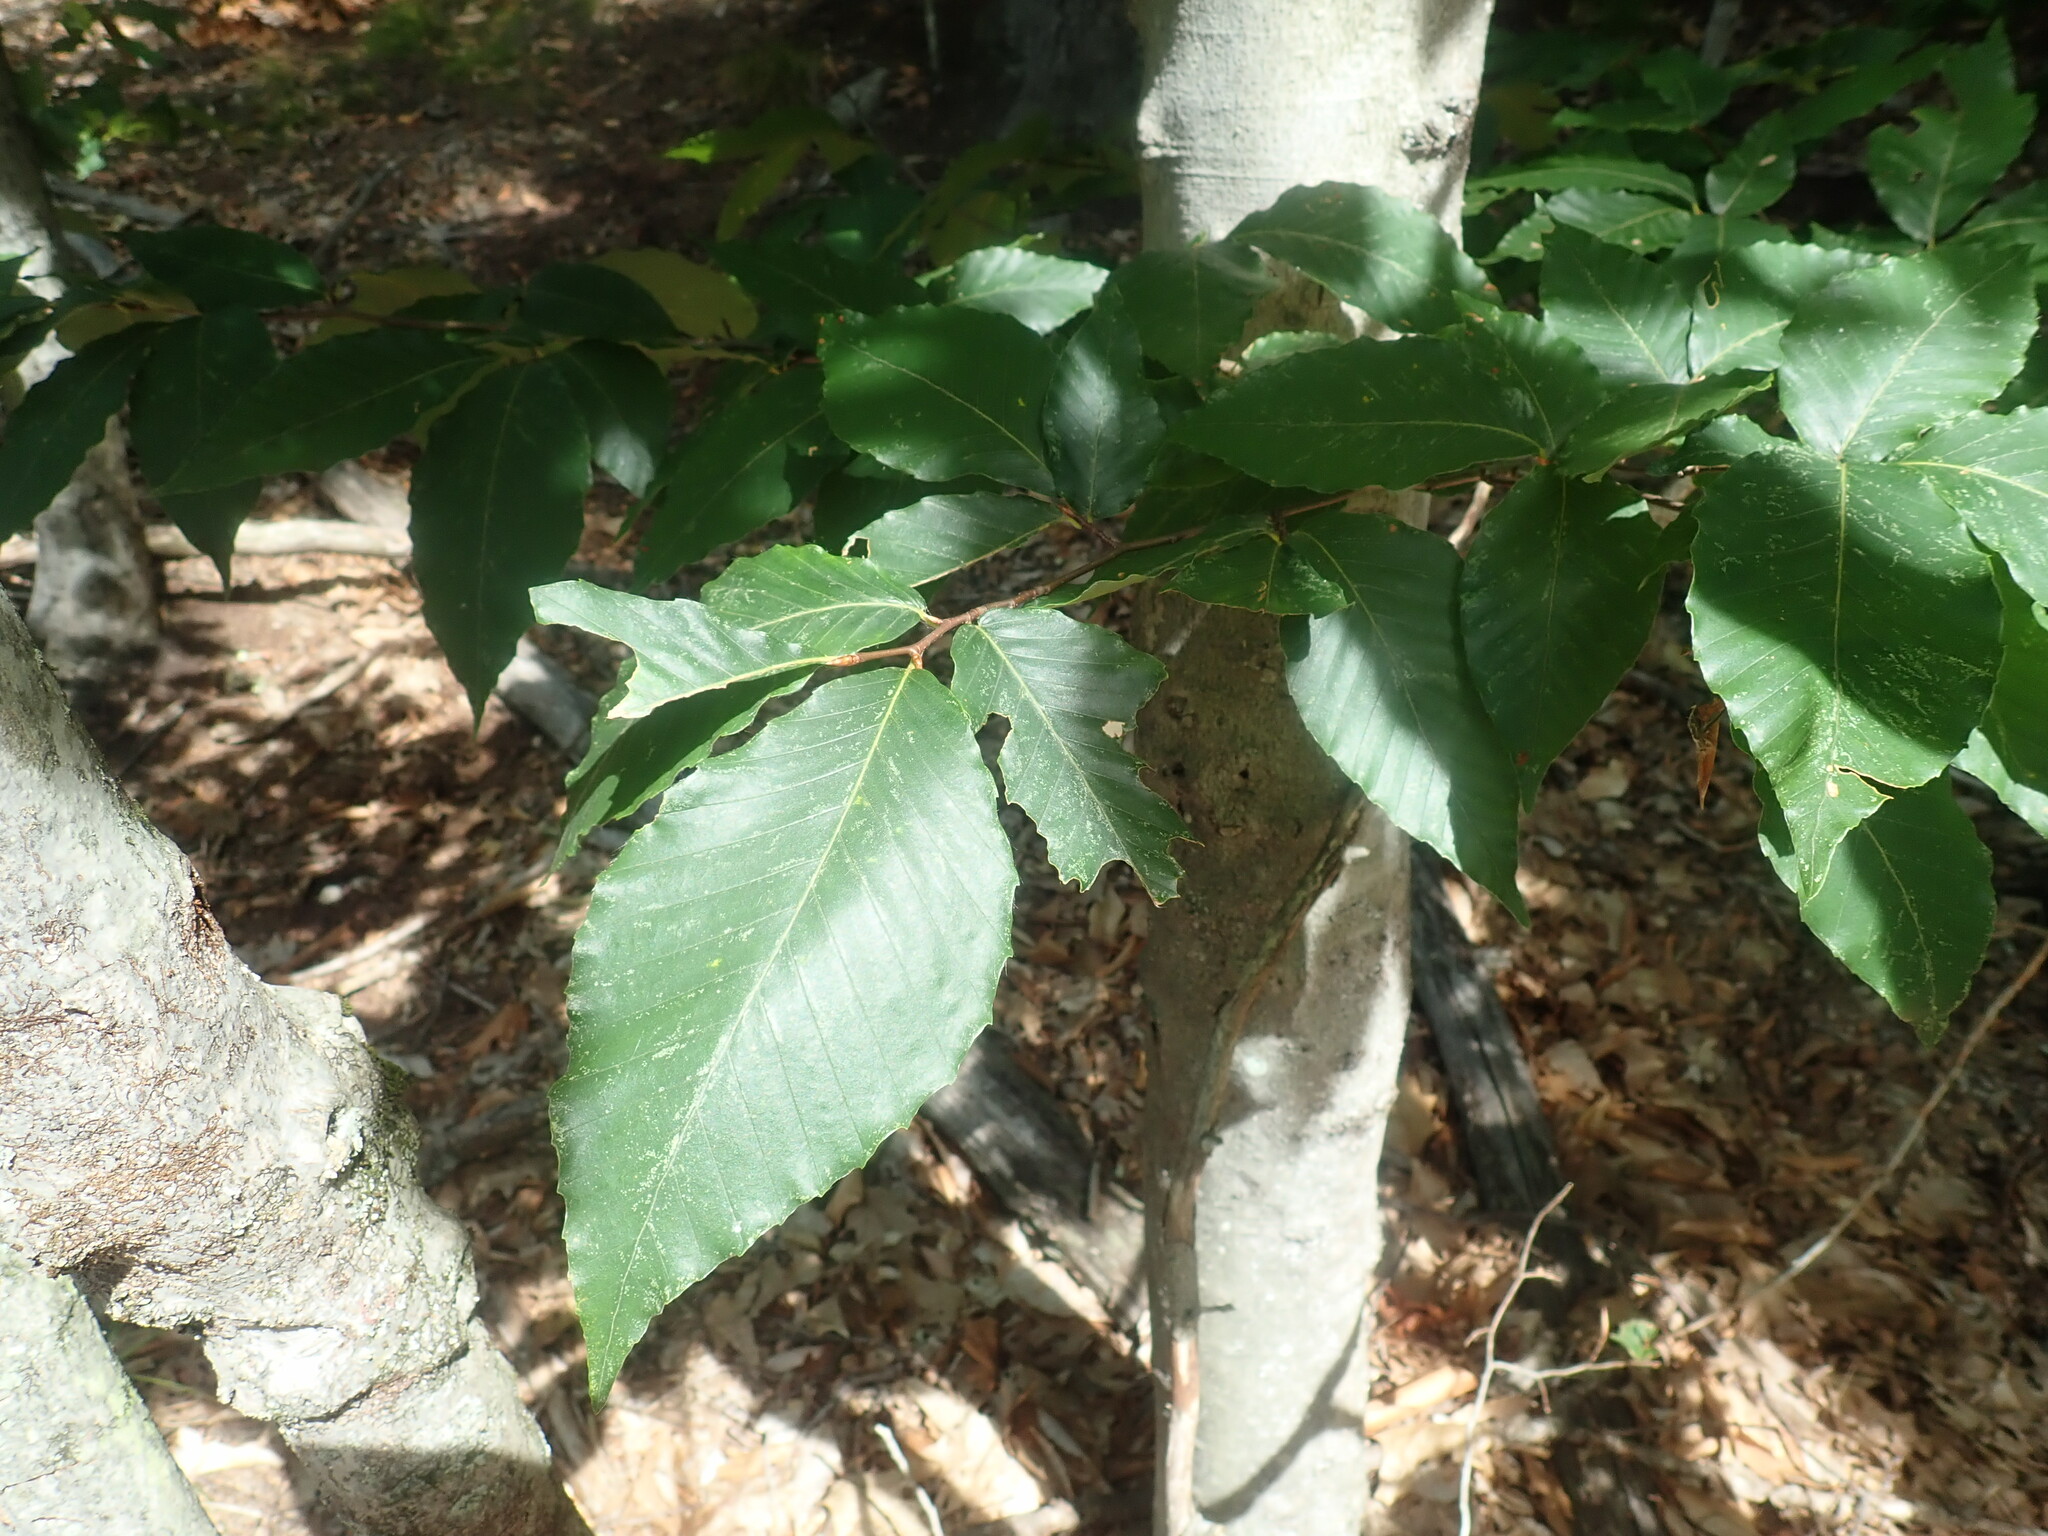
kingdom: Plantae
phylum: Tracheophyta
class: Magnoliopsida
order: Fagales
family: Fagaceae
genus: Fagus
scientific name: Fagus grandifolia
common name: American beech
